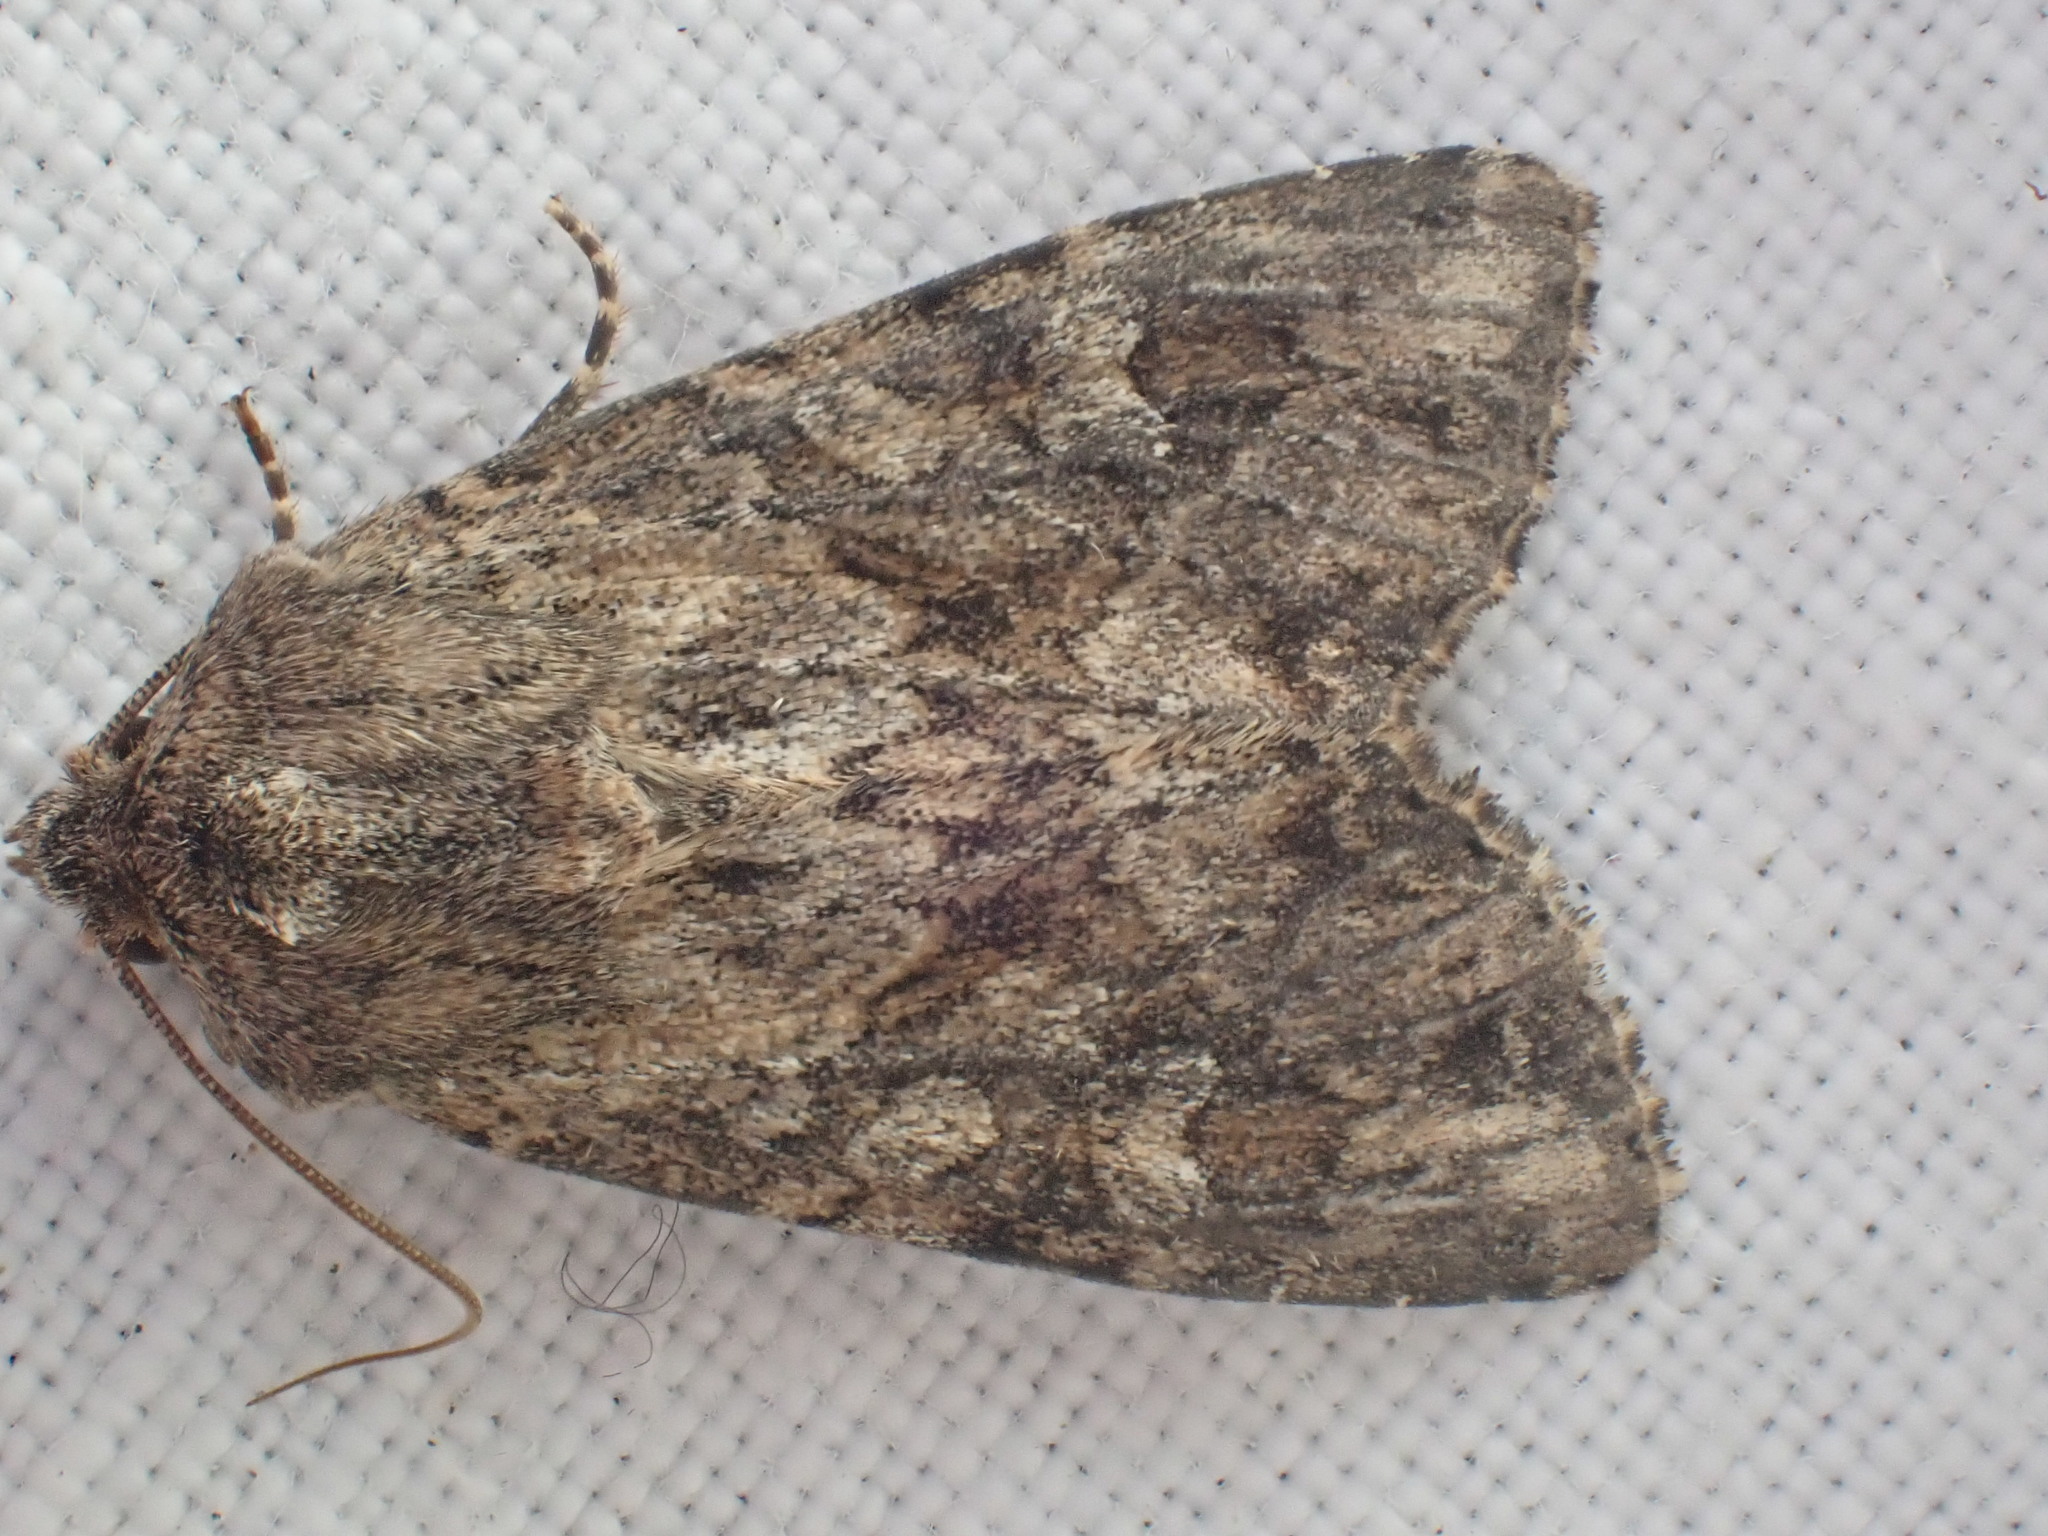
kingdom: Animalia
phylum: Arthropoda
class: Insecta
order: Lepidoptera
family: Noctuidae
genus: Apamea
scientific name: Apamea anceps
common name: Large nutmeg
